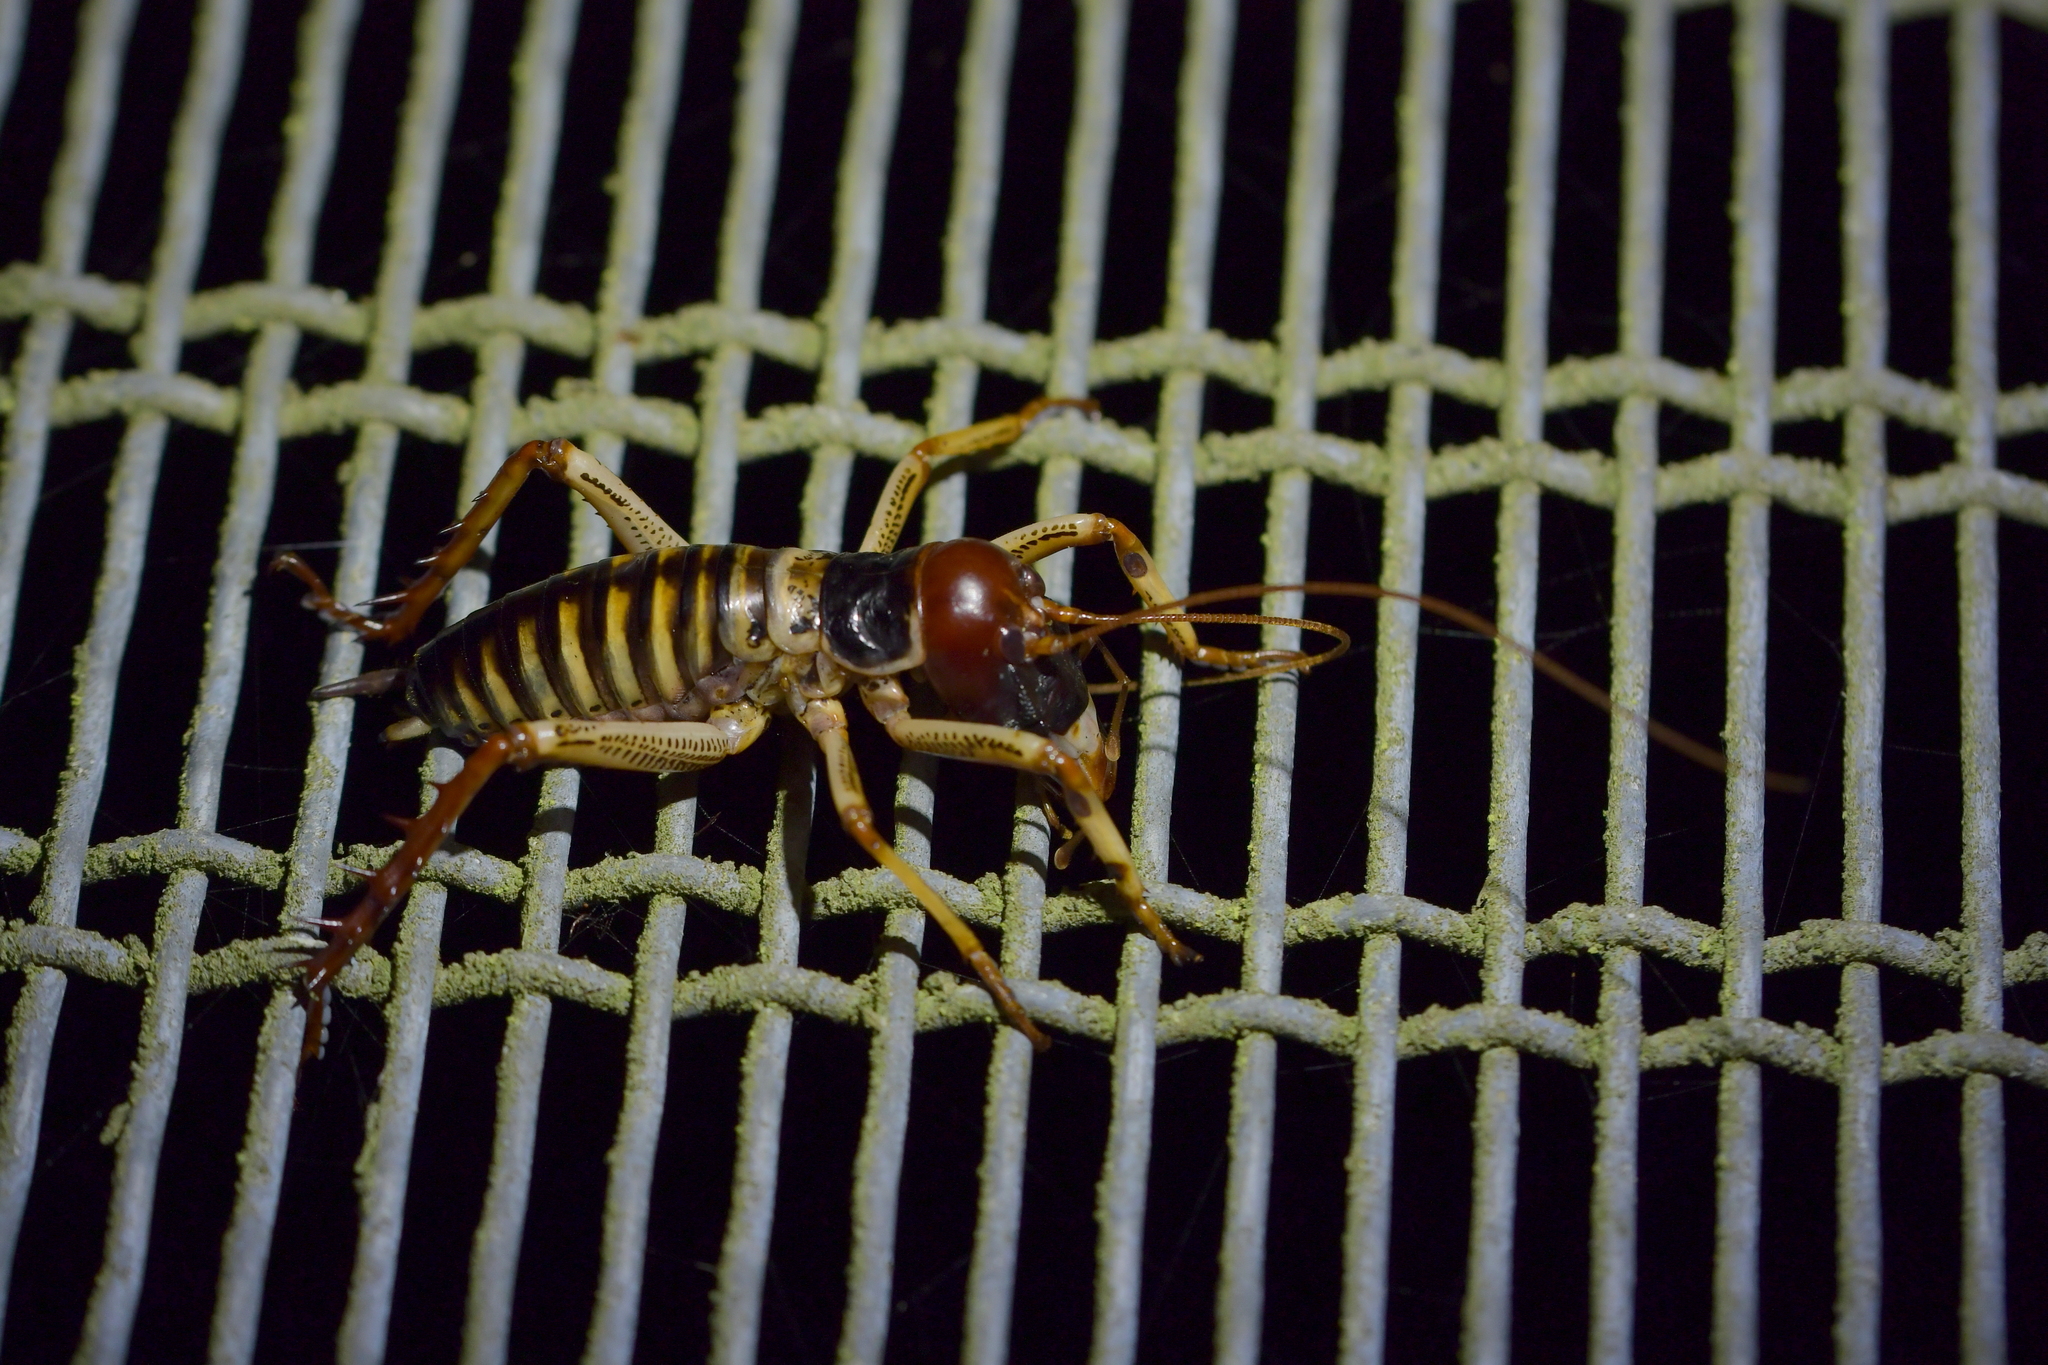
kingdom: Animalia
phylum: Arthropoda
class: Insecta
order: Orthoptera
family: Anostostomatidae
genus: Hemideina
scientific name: Hemideina crassidens
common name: Wellington tree weta
